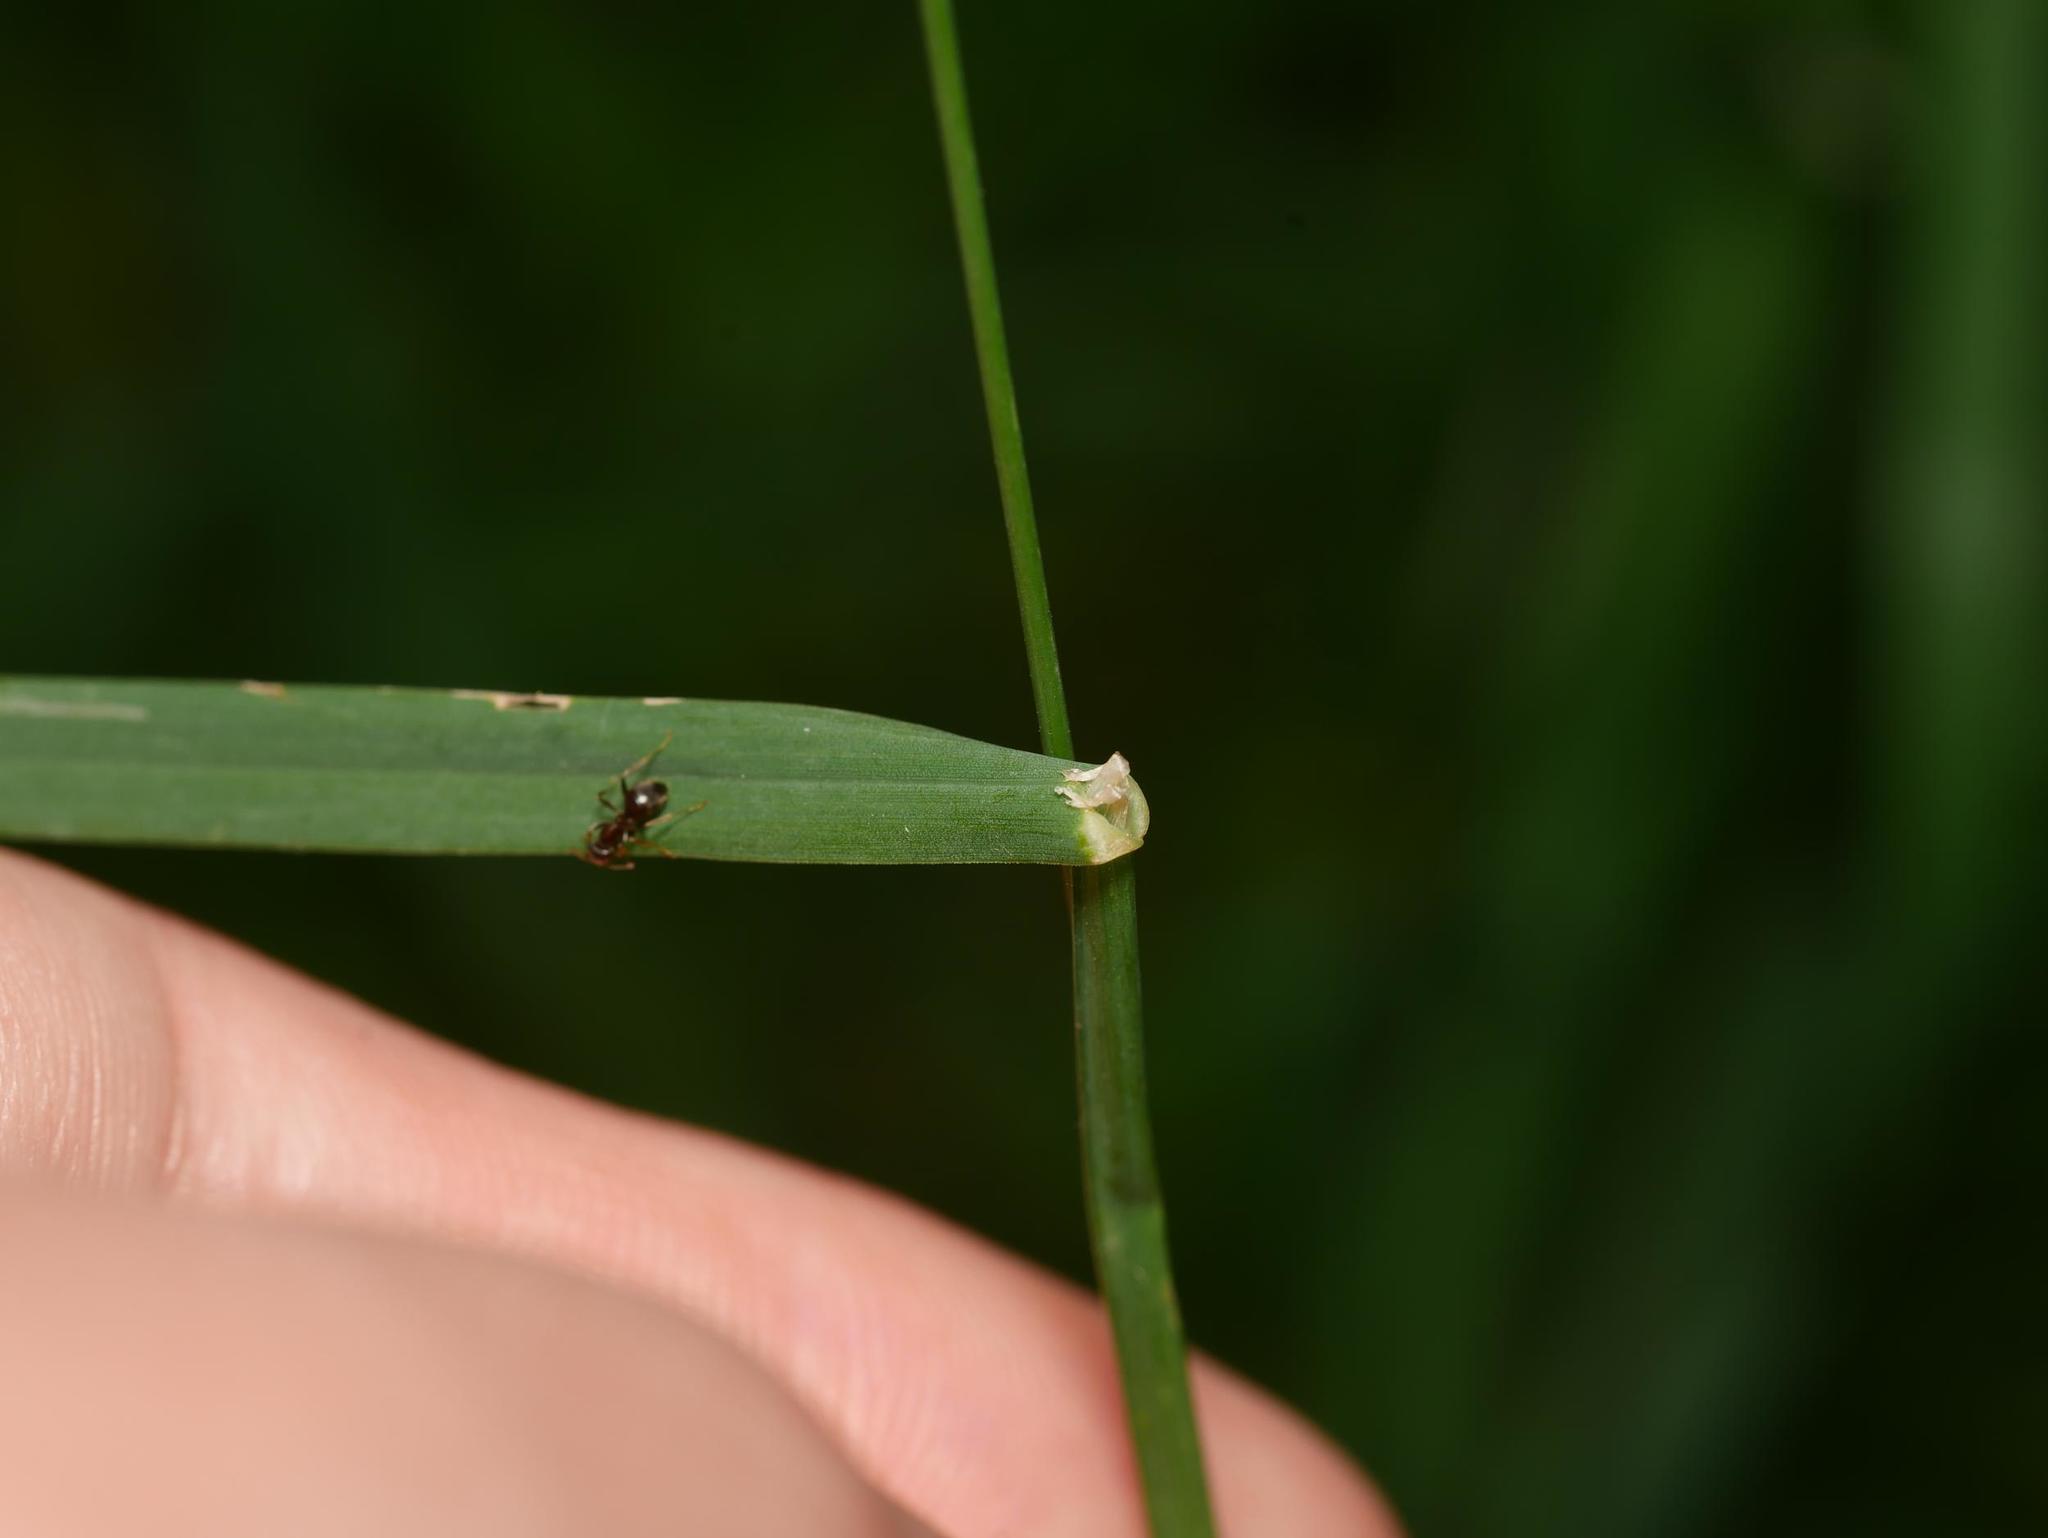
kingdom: Plantae
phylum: Tracheophyta
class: Liliopsida
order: Poales
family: Poaceae
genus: Dactylis
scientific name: Dactylis glomerata
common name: Orchardgrass
